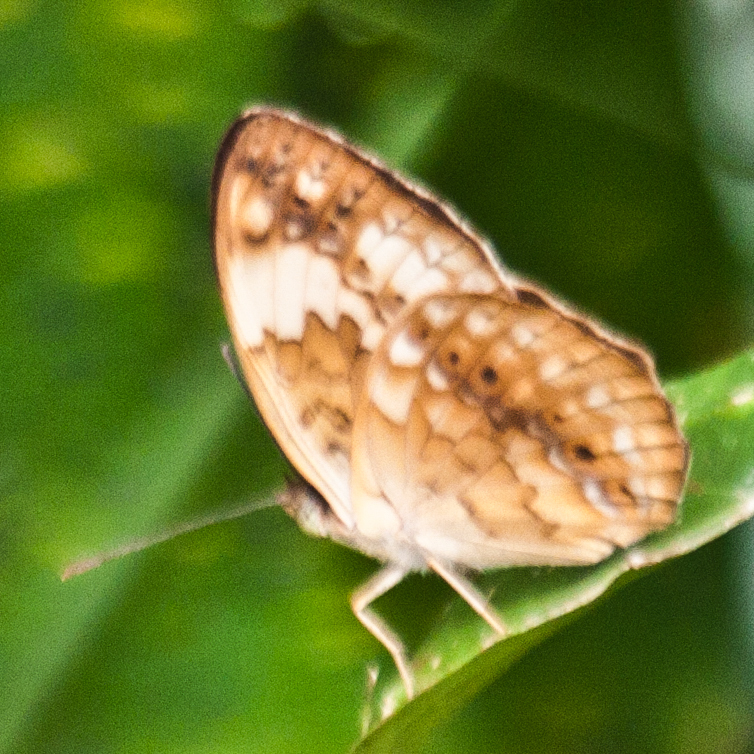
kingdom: Animalia
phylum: Arthropoda
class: Insecta
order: Lepidoptera
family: Nymphalidae
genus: Cupha
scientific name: Cupha erymanthis
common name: Rustic
